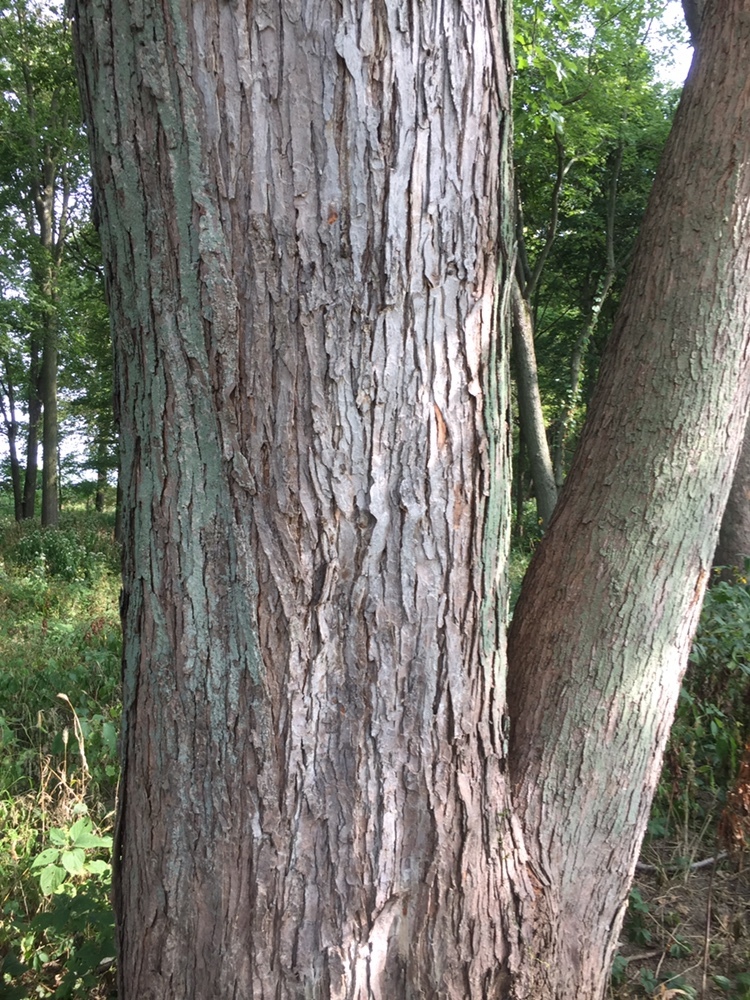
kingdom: Plantae
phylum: Tracheophyta
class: Magnoliopsida
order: Sapindales
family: Sapindaceae
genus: Acer
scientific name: Acer saccharinum
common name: Silver maple
